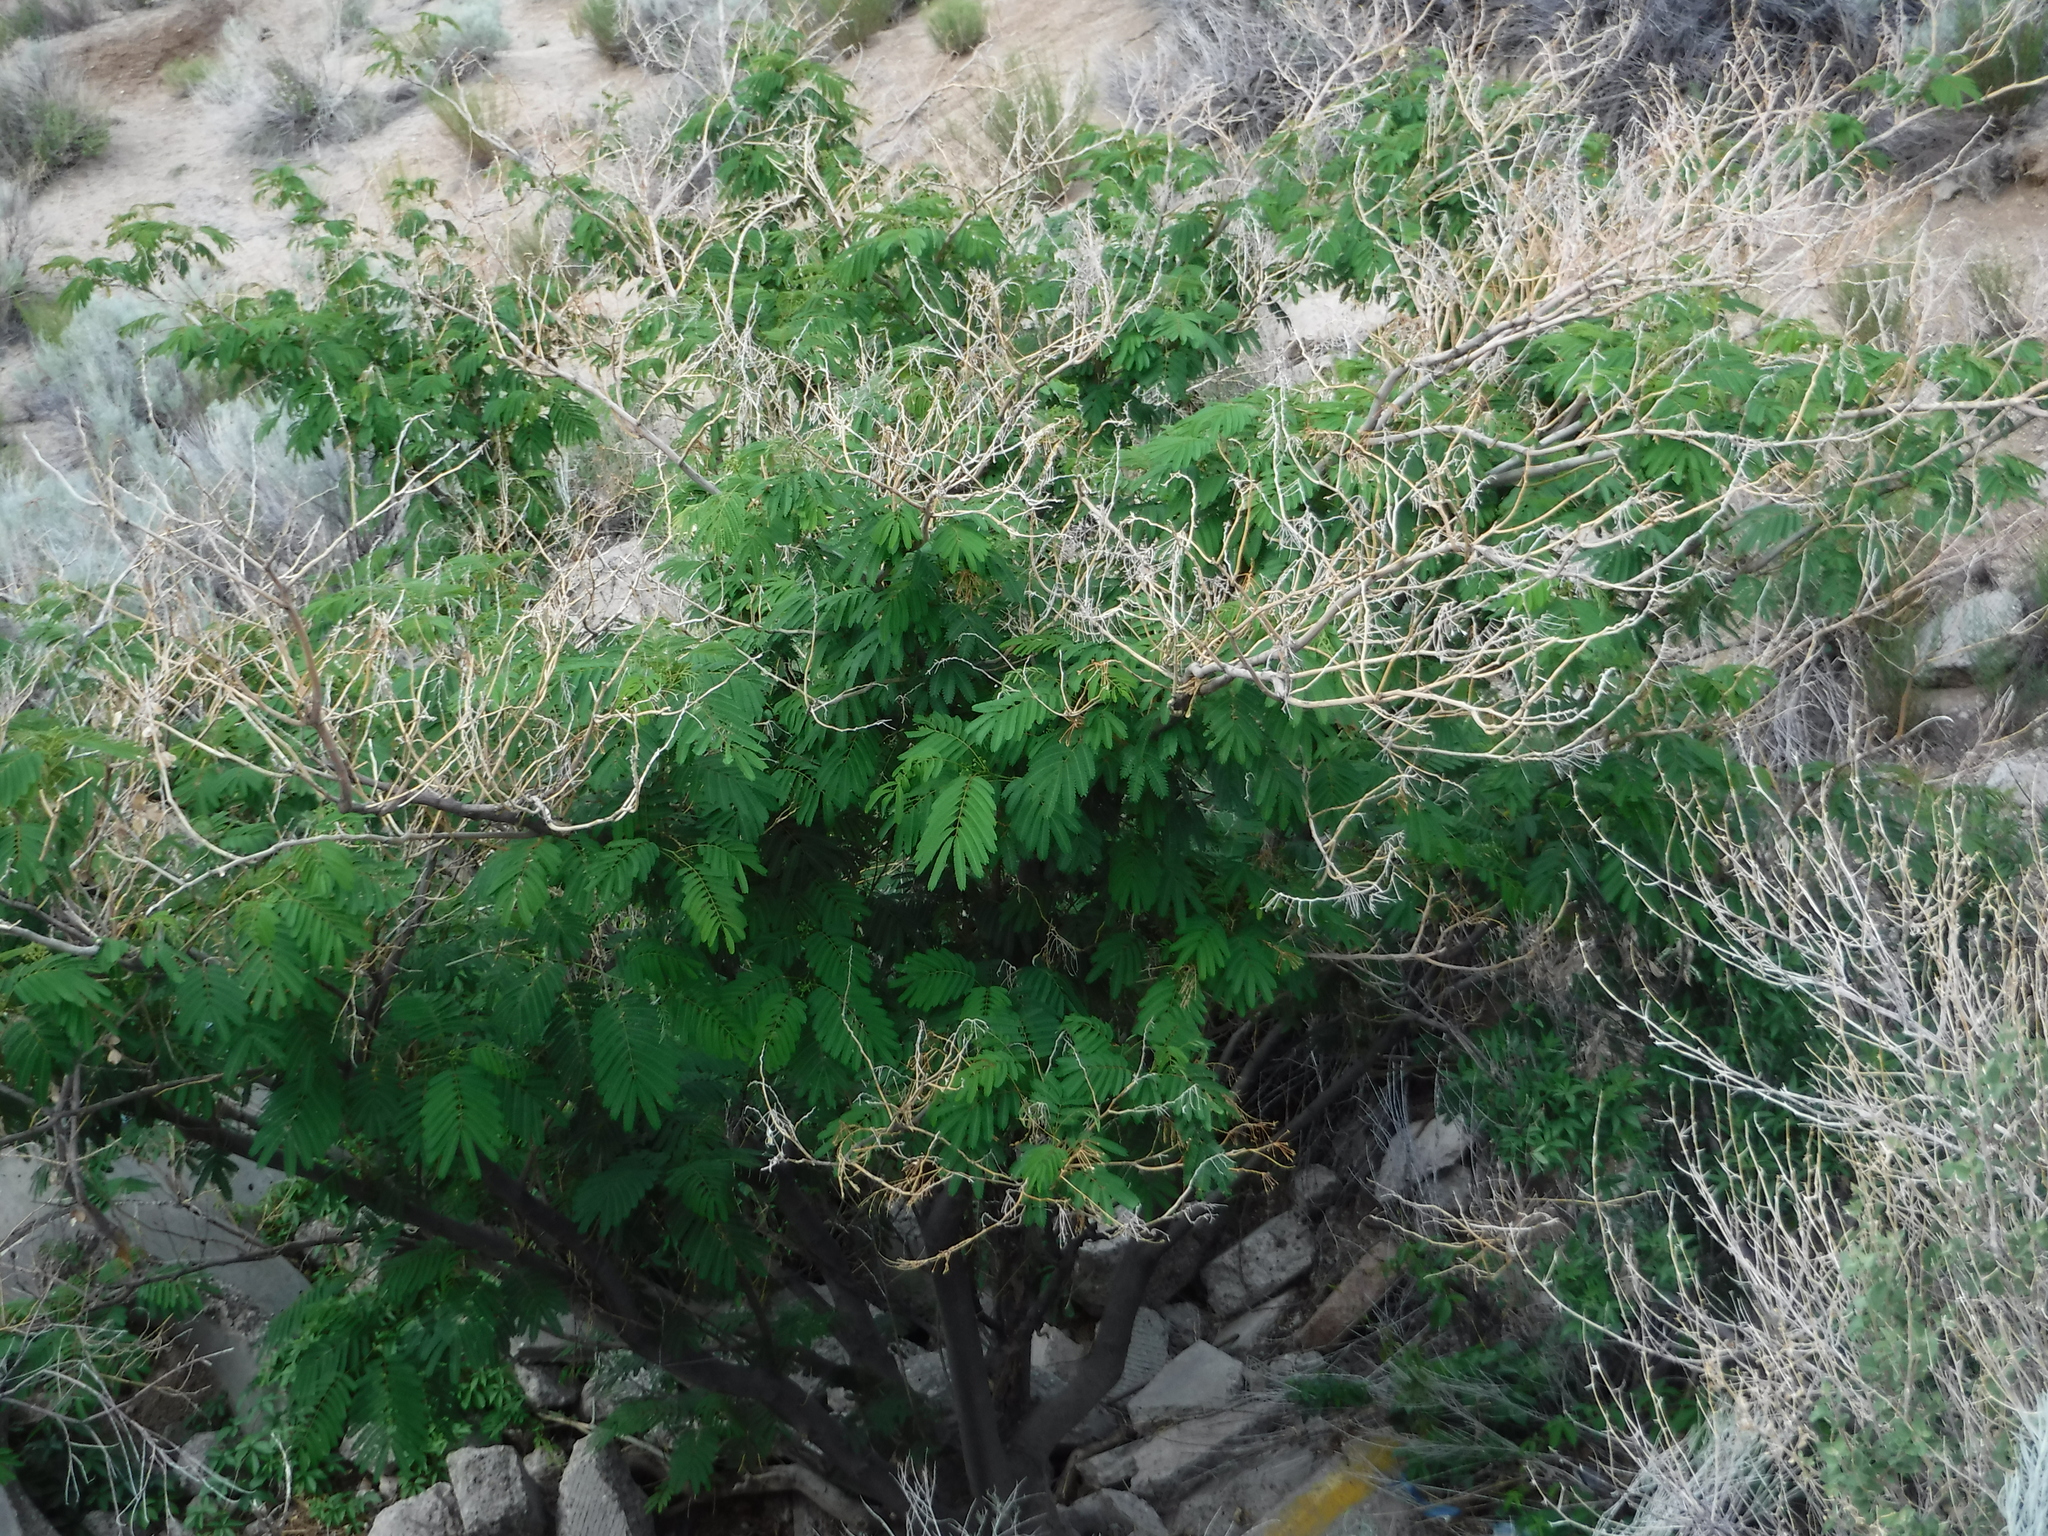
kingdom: Plantae
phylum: Tracheophyta
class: Magnoliopsida
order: Fabales
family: Fabaceae
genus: Albizia
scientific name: Albizia julibrissin
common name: Silktree
